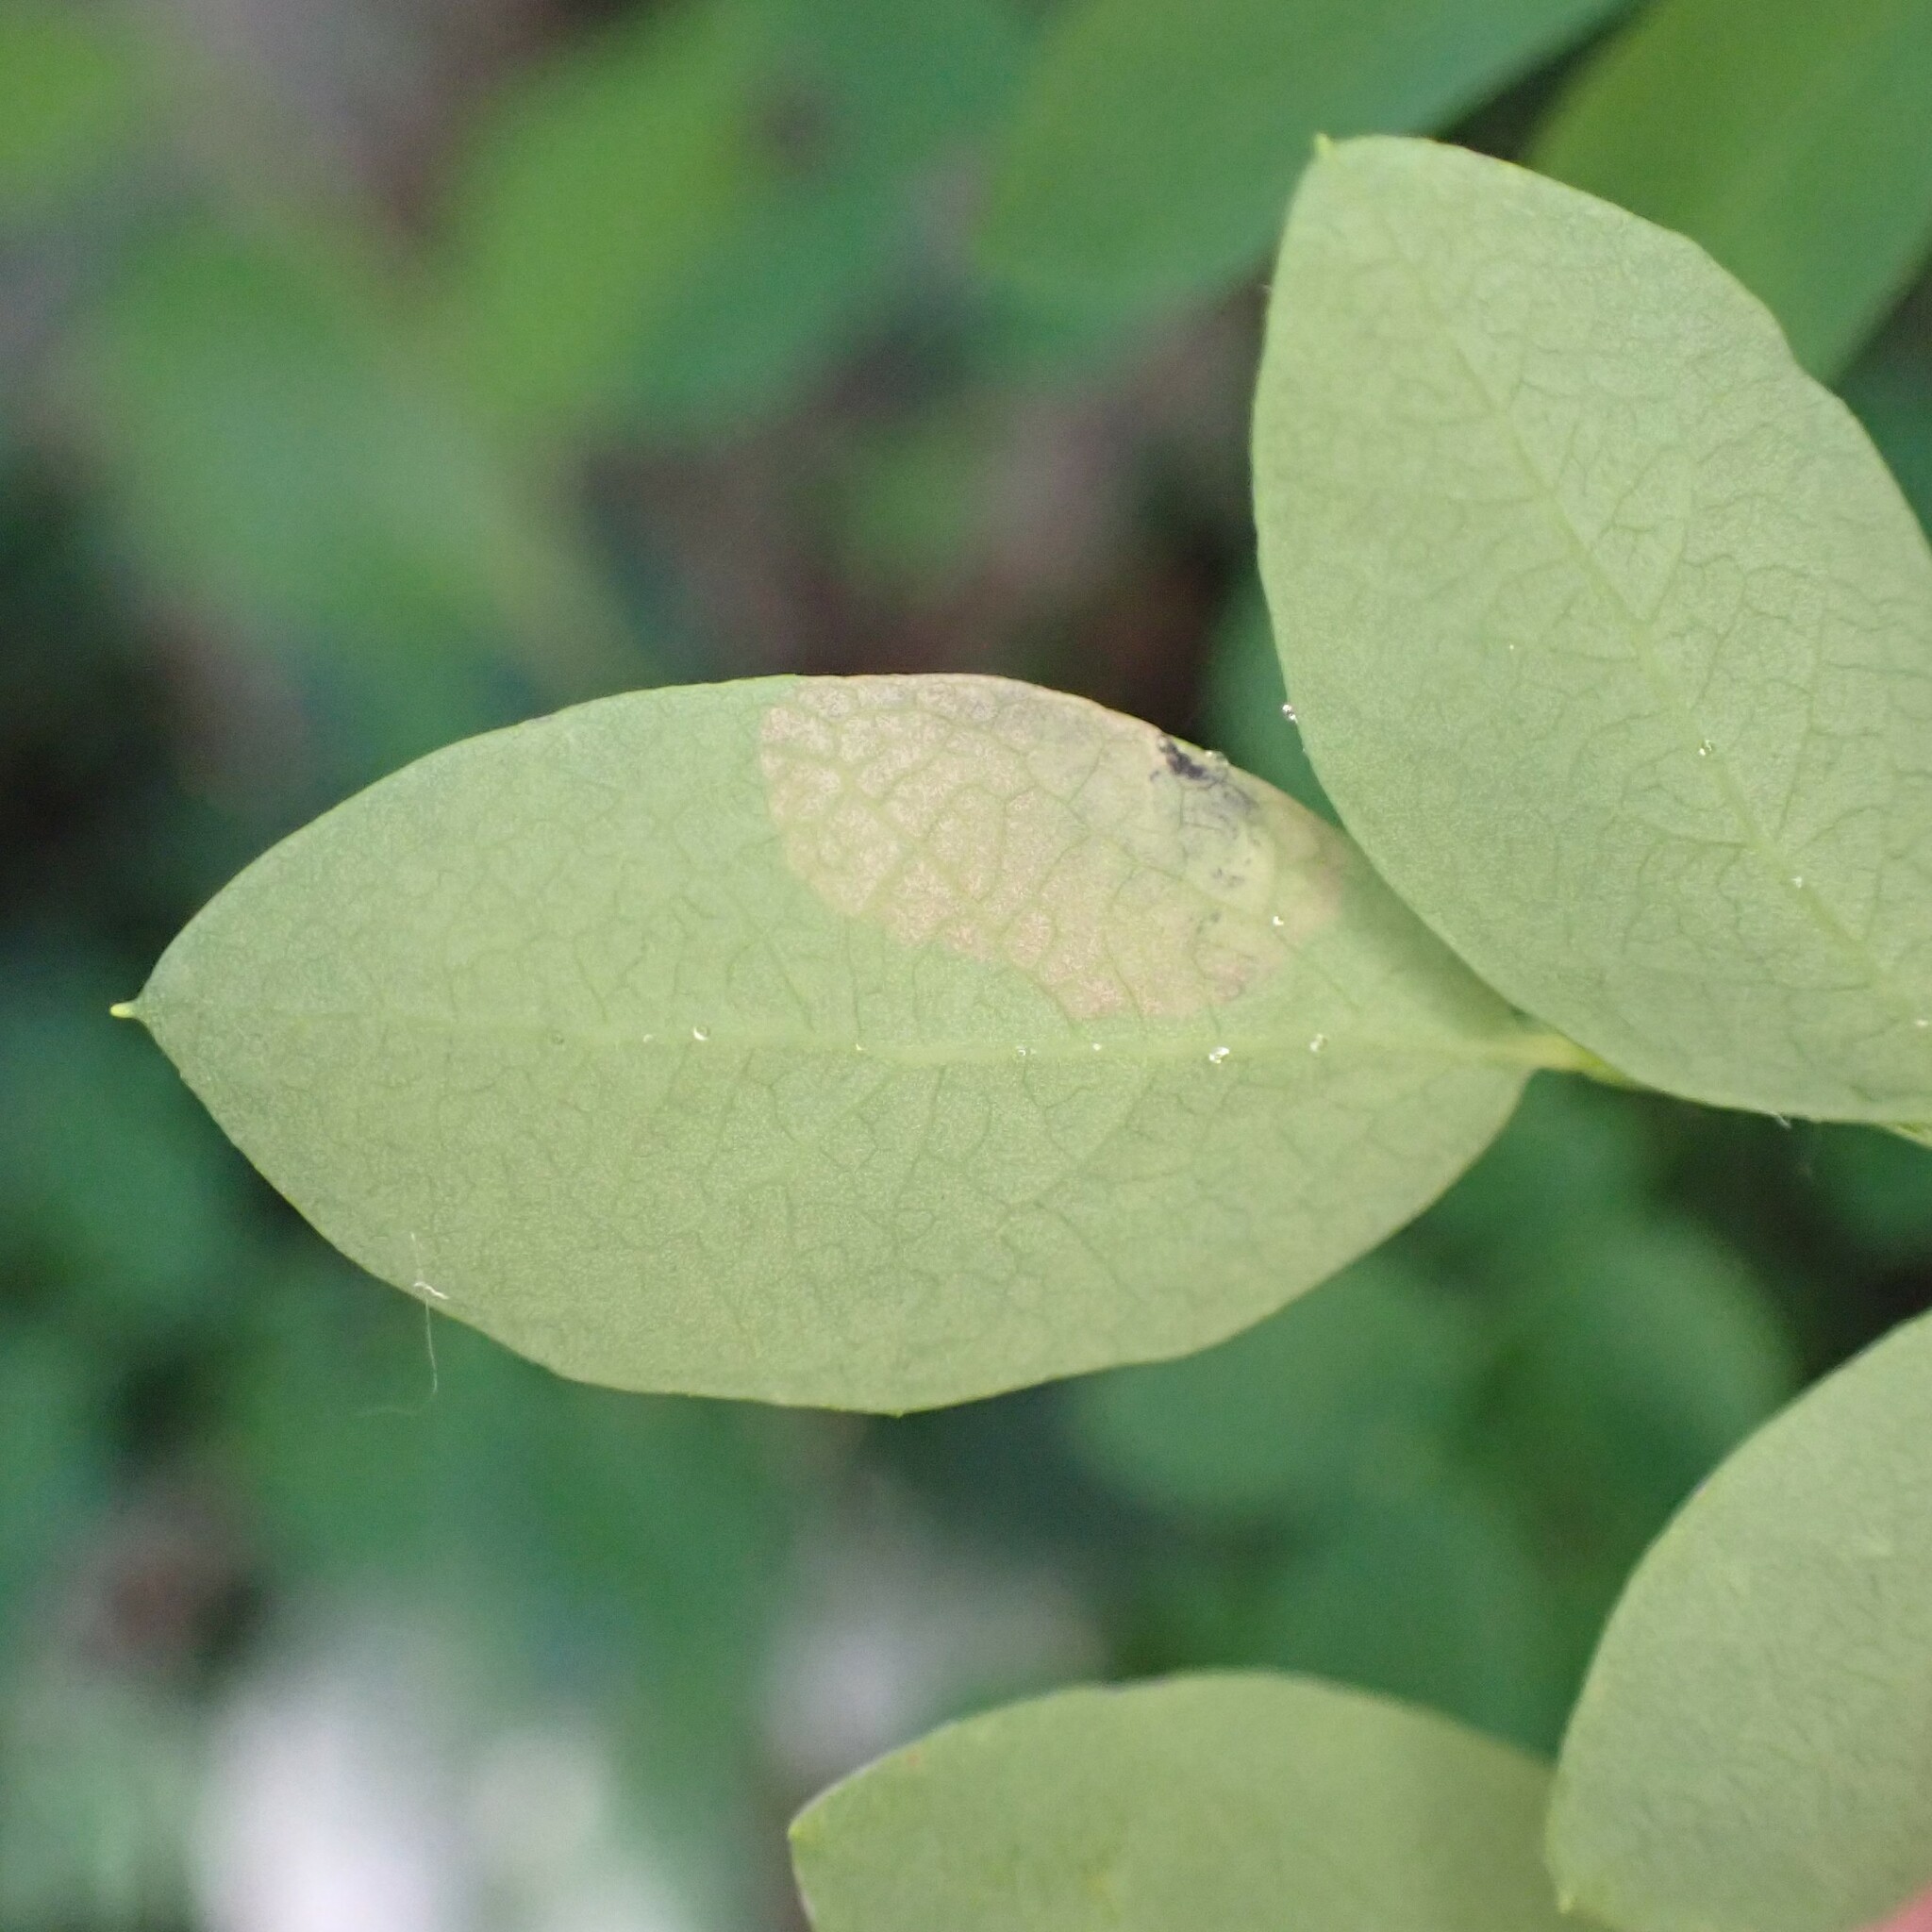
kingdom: Animalia
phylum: Arthropoda
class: Insecta
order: Hymenoptera
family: Tenthredinidae
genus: Scolioneura
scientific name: Scolioneura vaccinii
